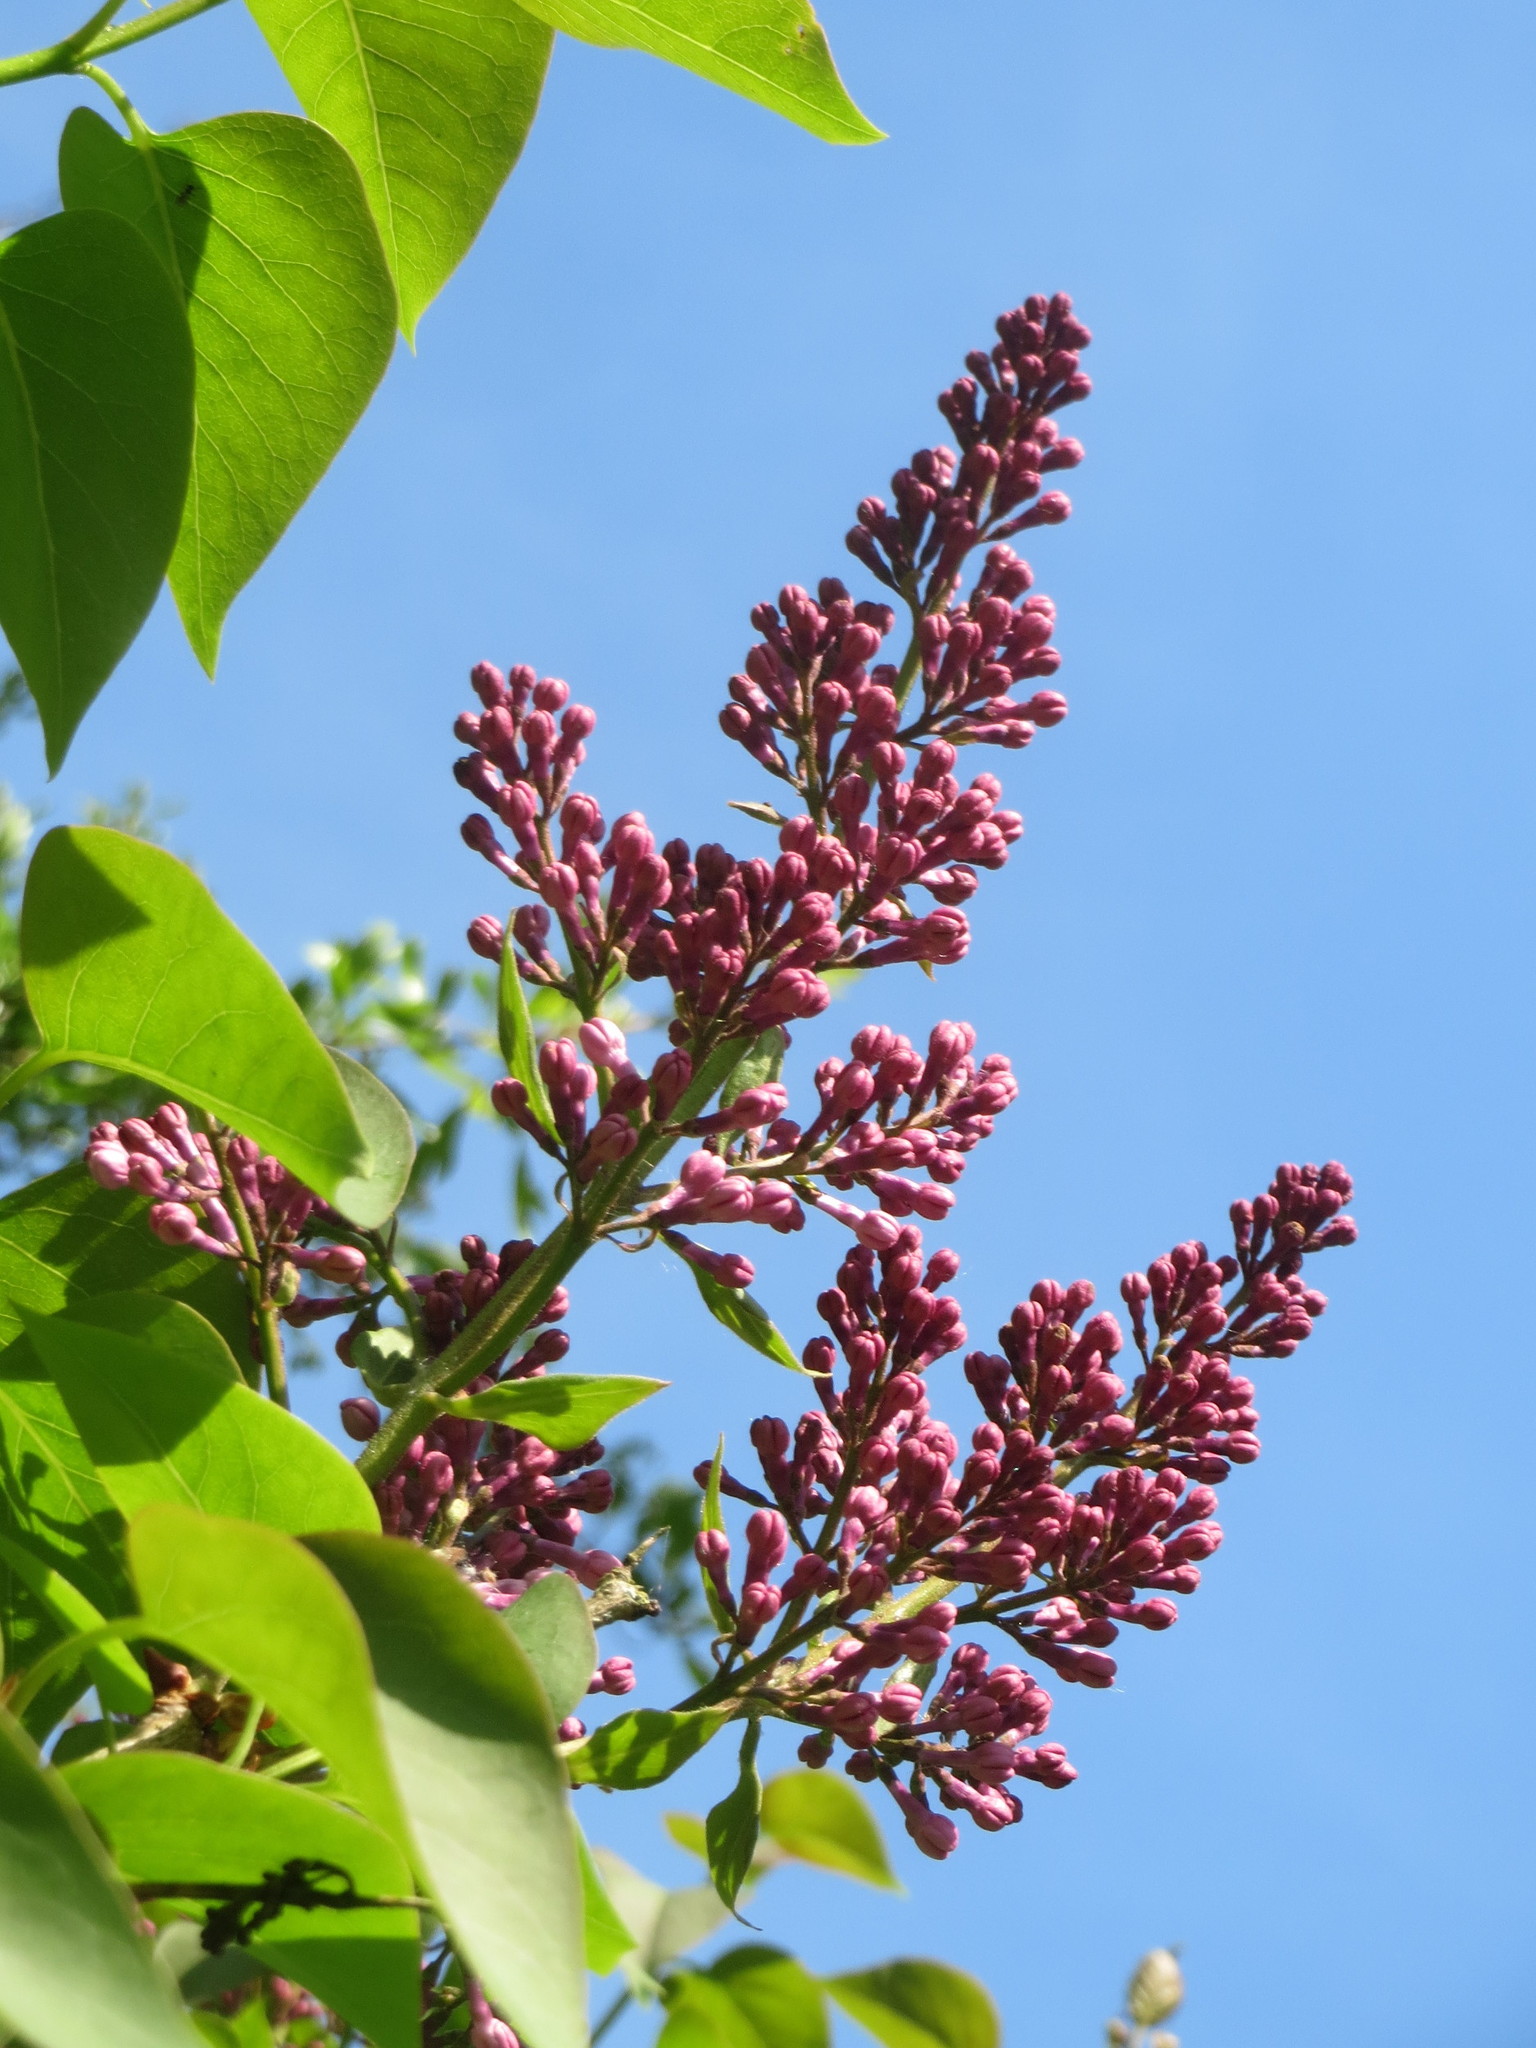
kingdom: Plantae
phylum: Tracheophyta
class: Magnoliopsida
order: Lamiales
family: Oleaceae
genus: Syringa
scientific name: Syringa vulgaris
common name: Common lilac
